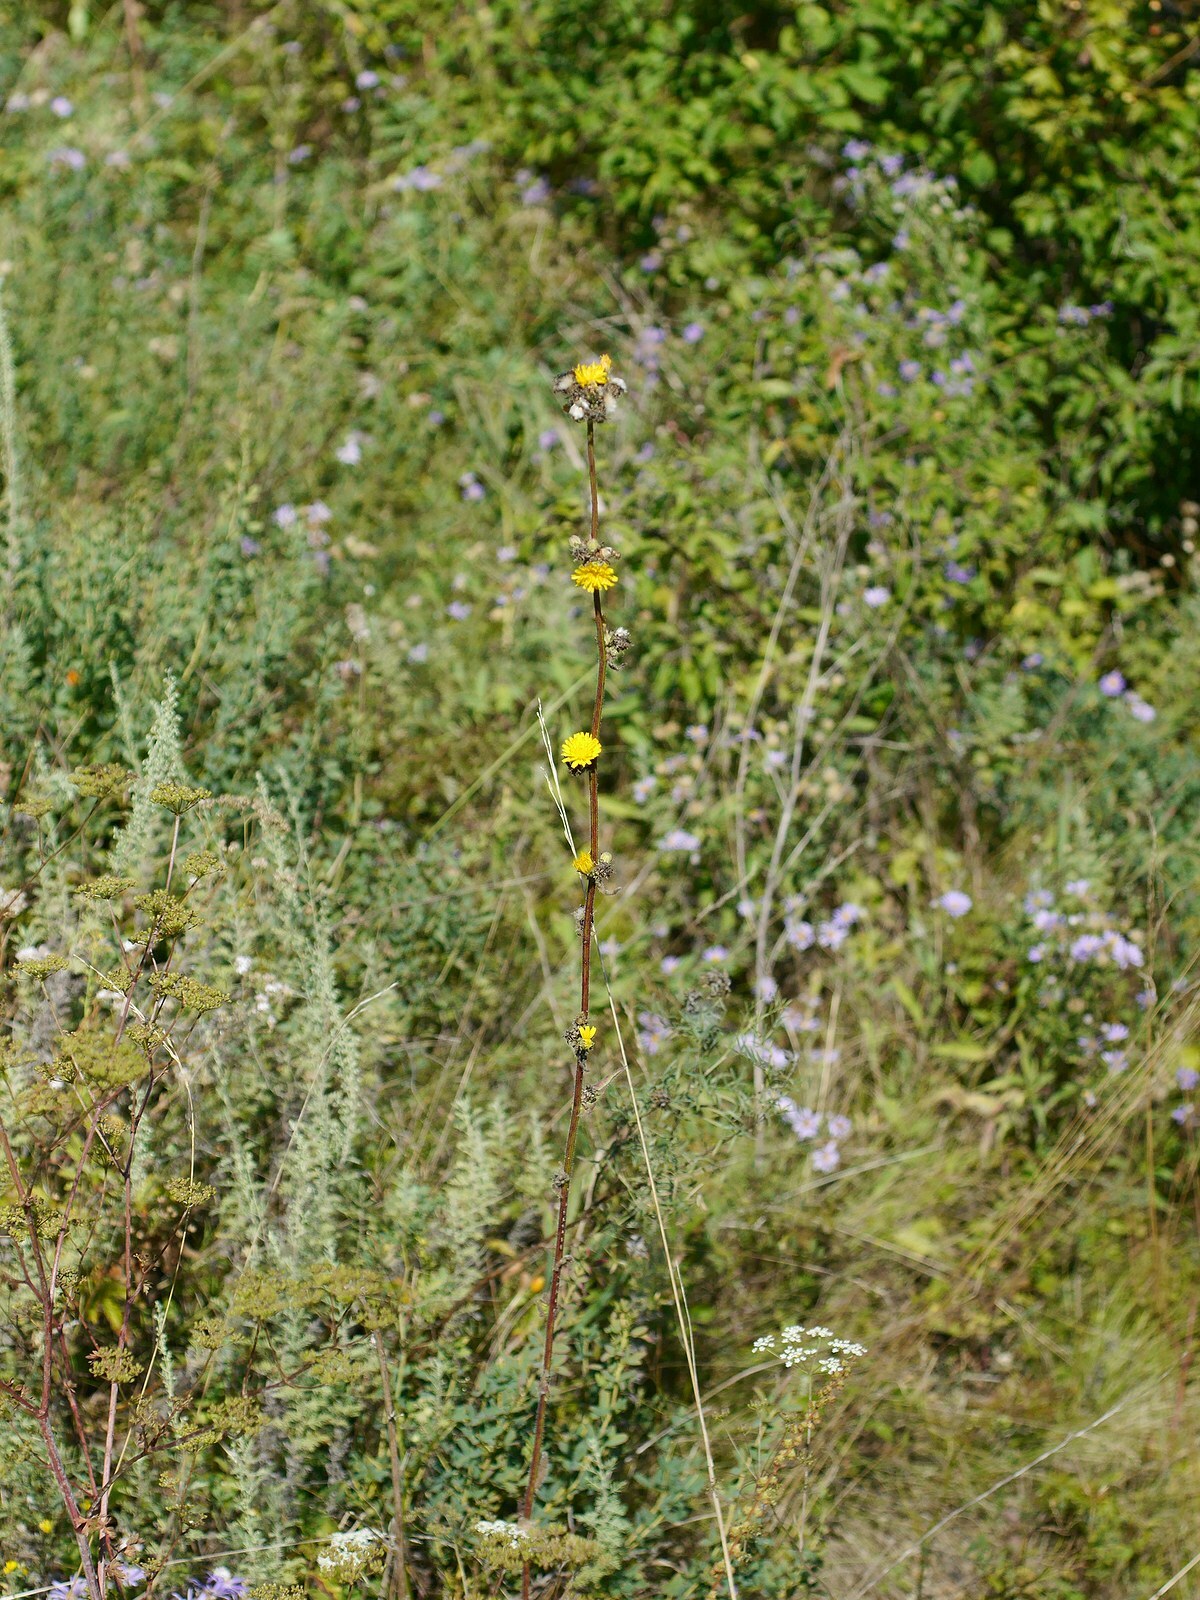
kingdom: Plantae
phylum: Tracheophyta
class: Magnoliopsida
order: Asterales
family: Asteraceae
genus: Picris
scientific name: Picris hieracioides
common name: Hawkweed oxtongue
